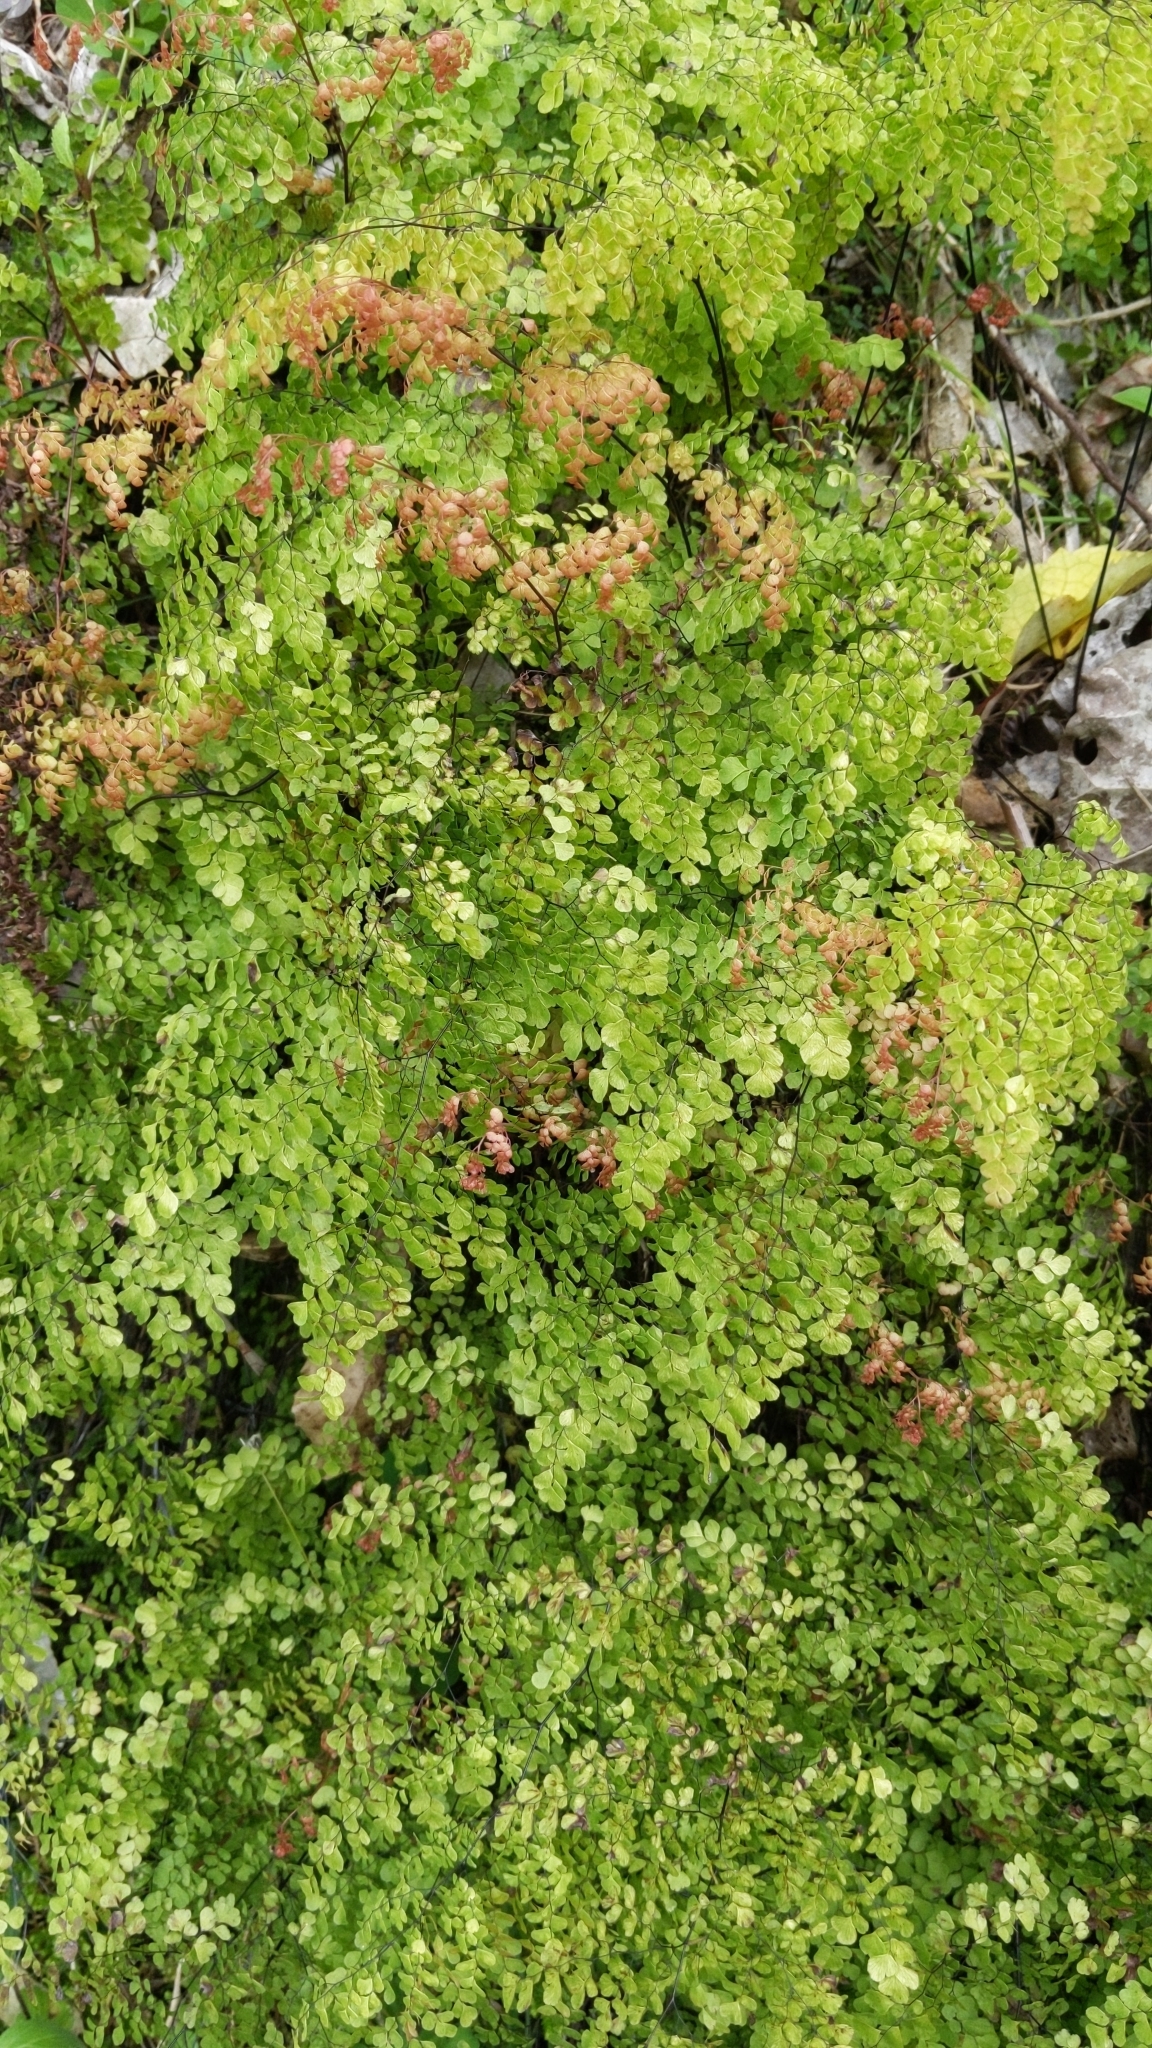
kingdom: Plantae
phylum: Tracheophyta
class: Polypodiopsida
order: Polypodiales
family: Pteridaceae
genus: Adiantum
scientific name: Adiantum aethiopicum
